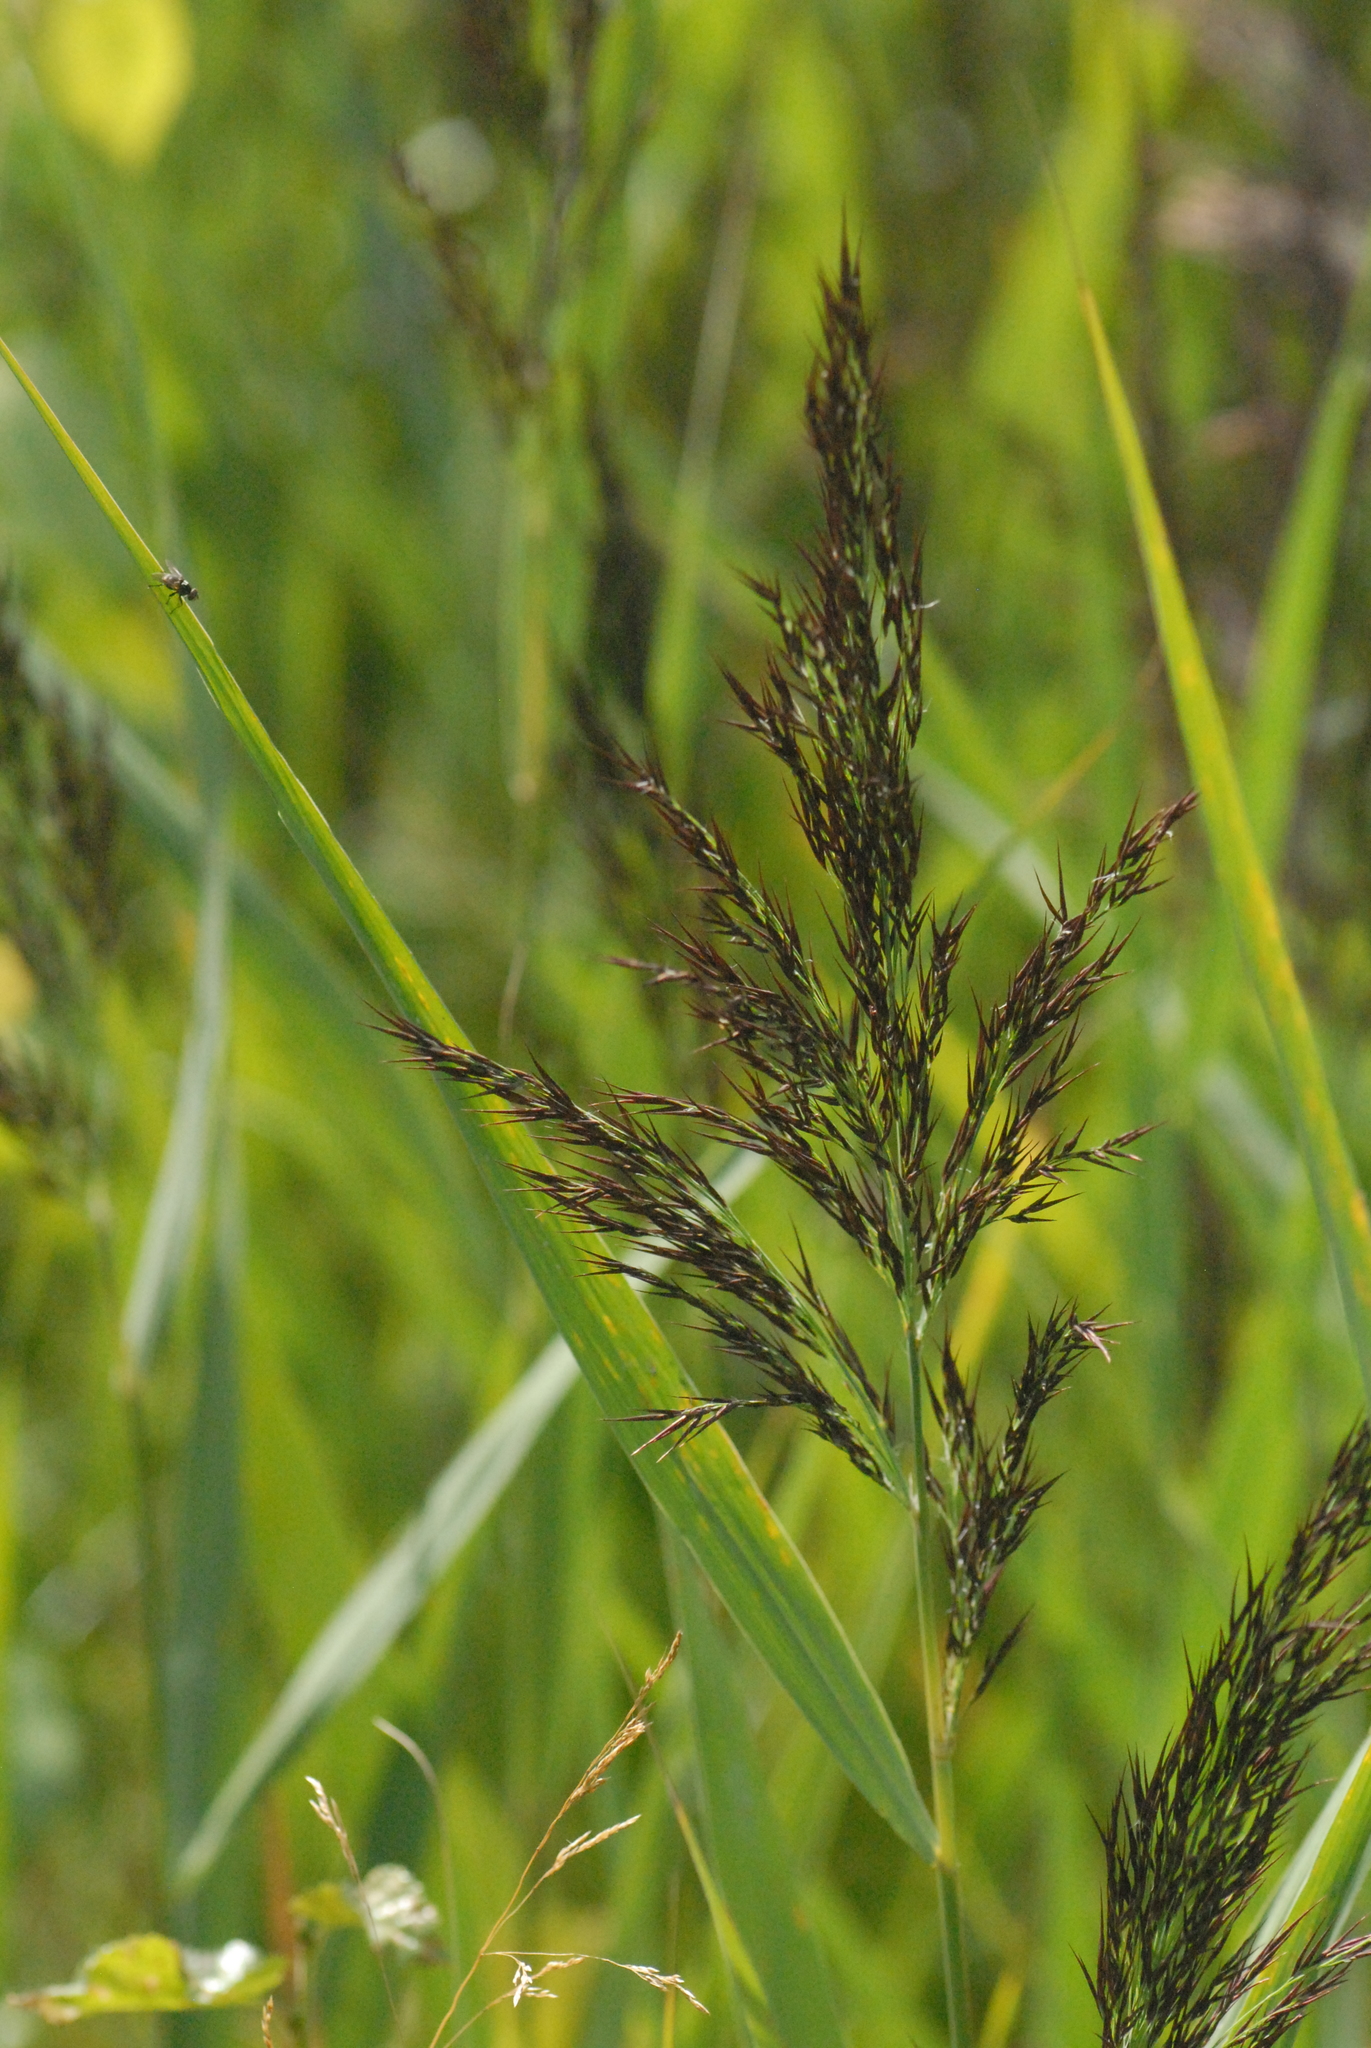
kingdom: Plantae
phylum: Tracheophyta
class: Liliopsida
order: Poales
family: Poaceae
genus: Phragmites
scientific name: Phragmites australis
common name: Common reed
